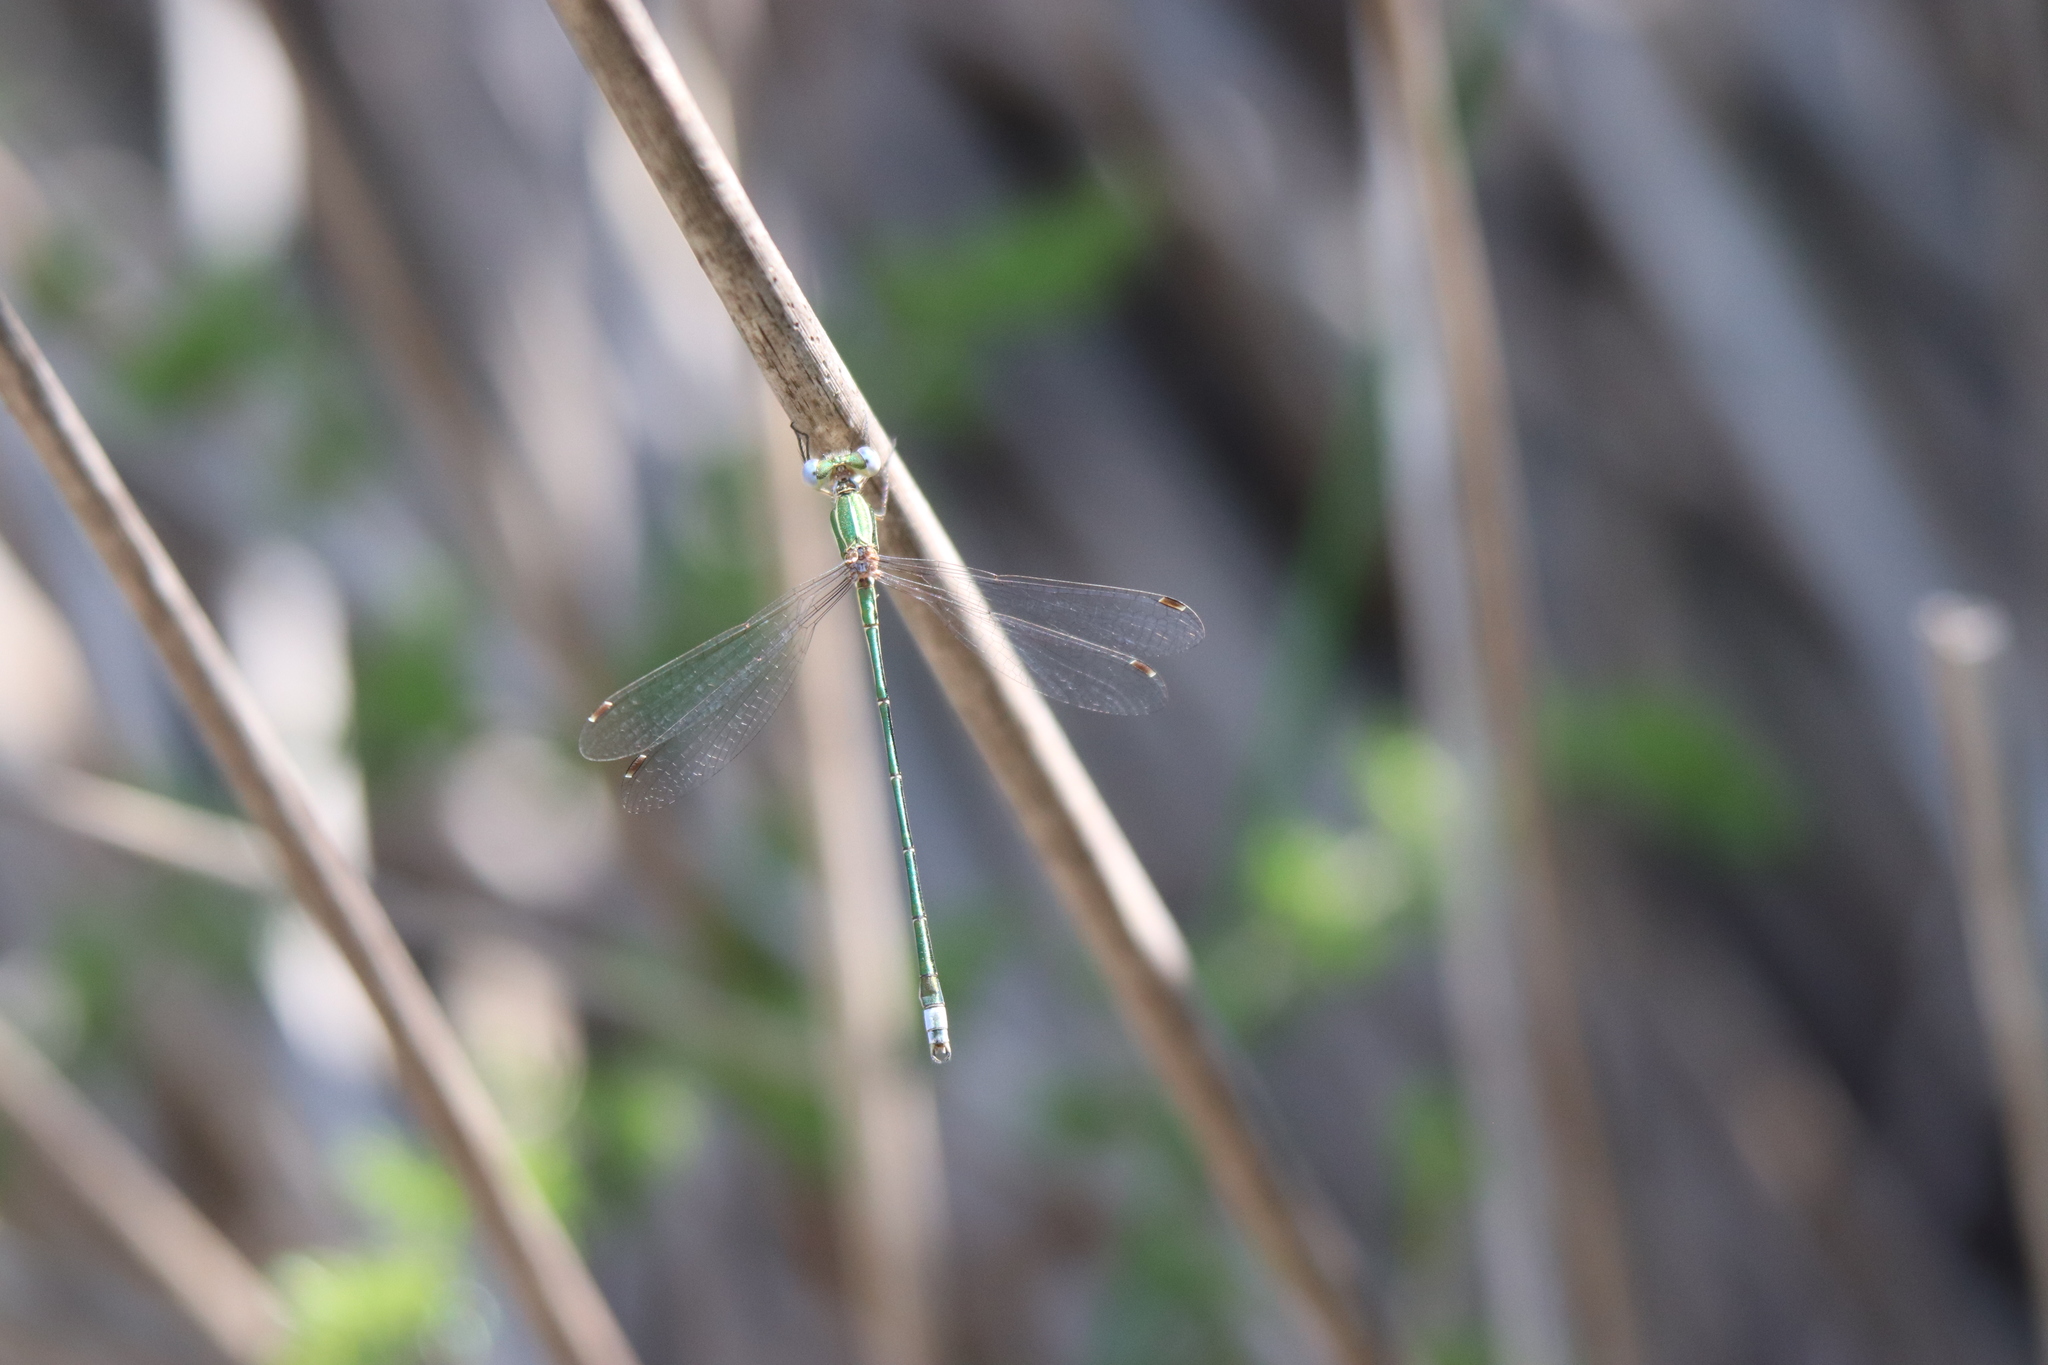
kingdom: Animalia
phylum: Arthropoda
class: Insecta
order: Odonata
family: Lestidae
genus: Lestes
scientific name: Lestes virens
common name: Small emerald spreadwing
